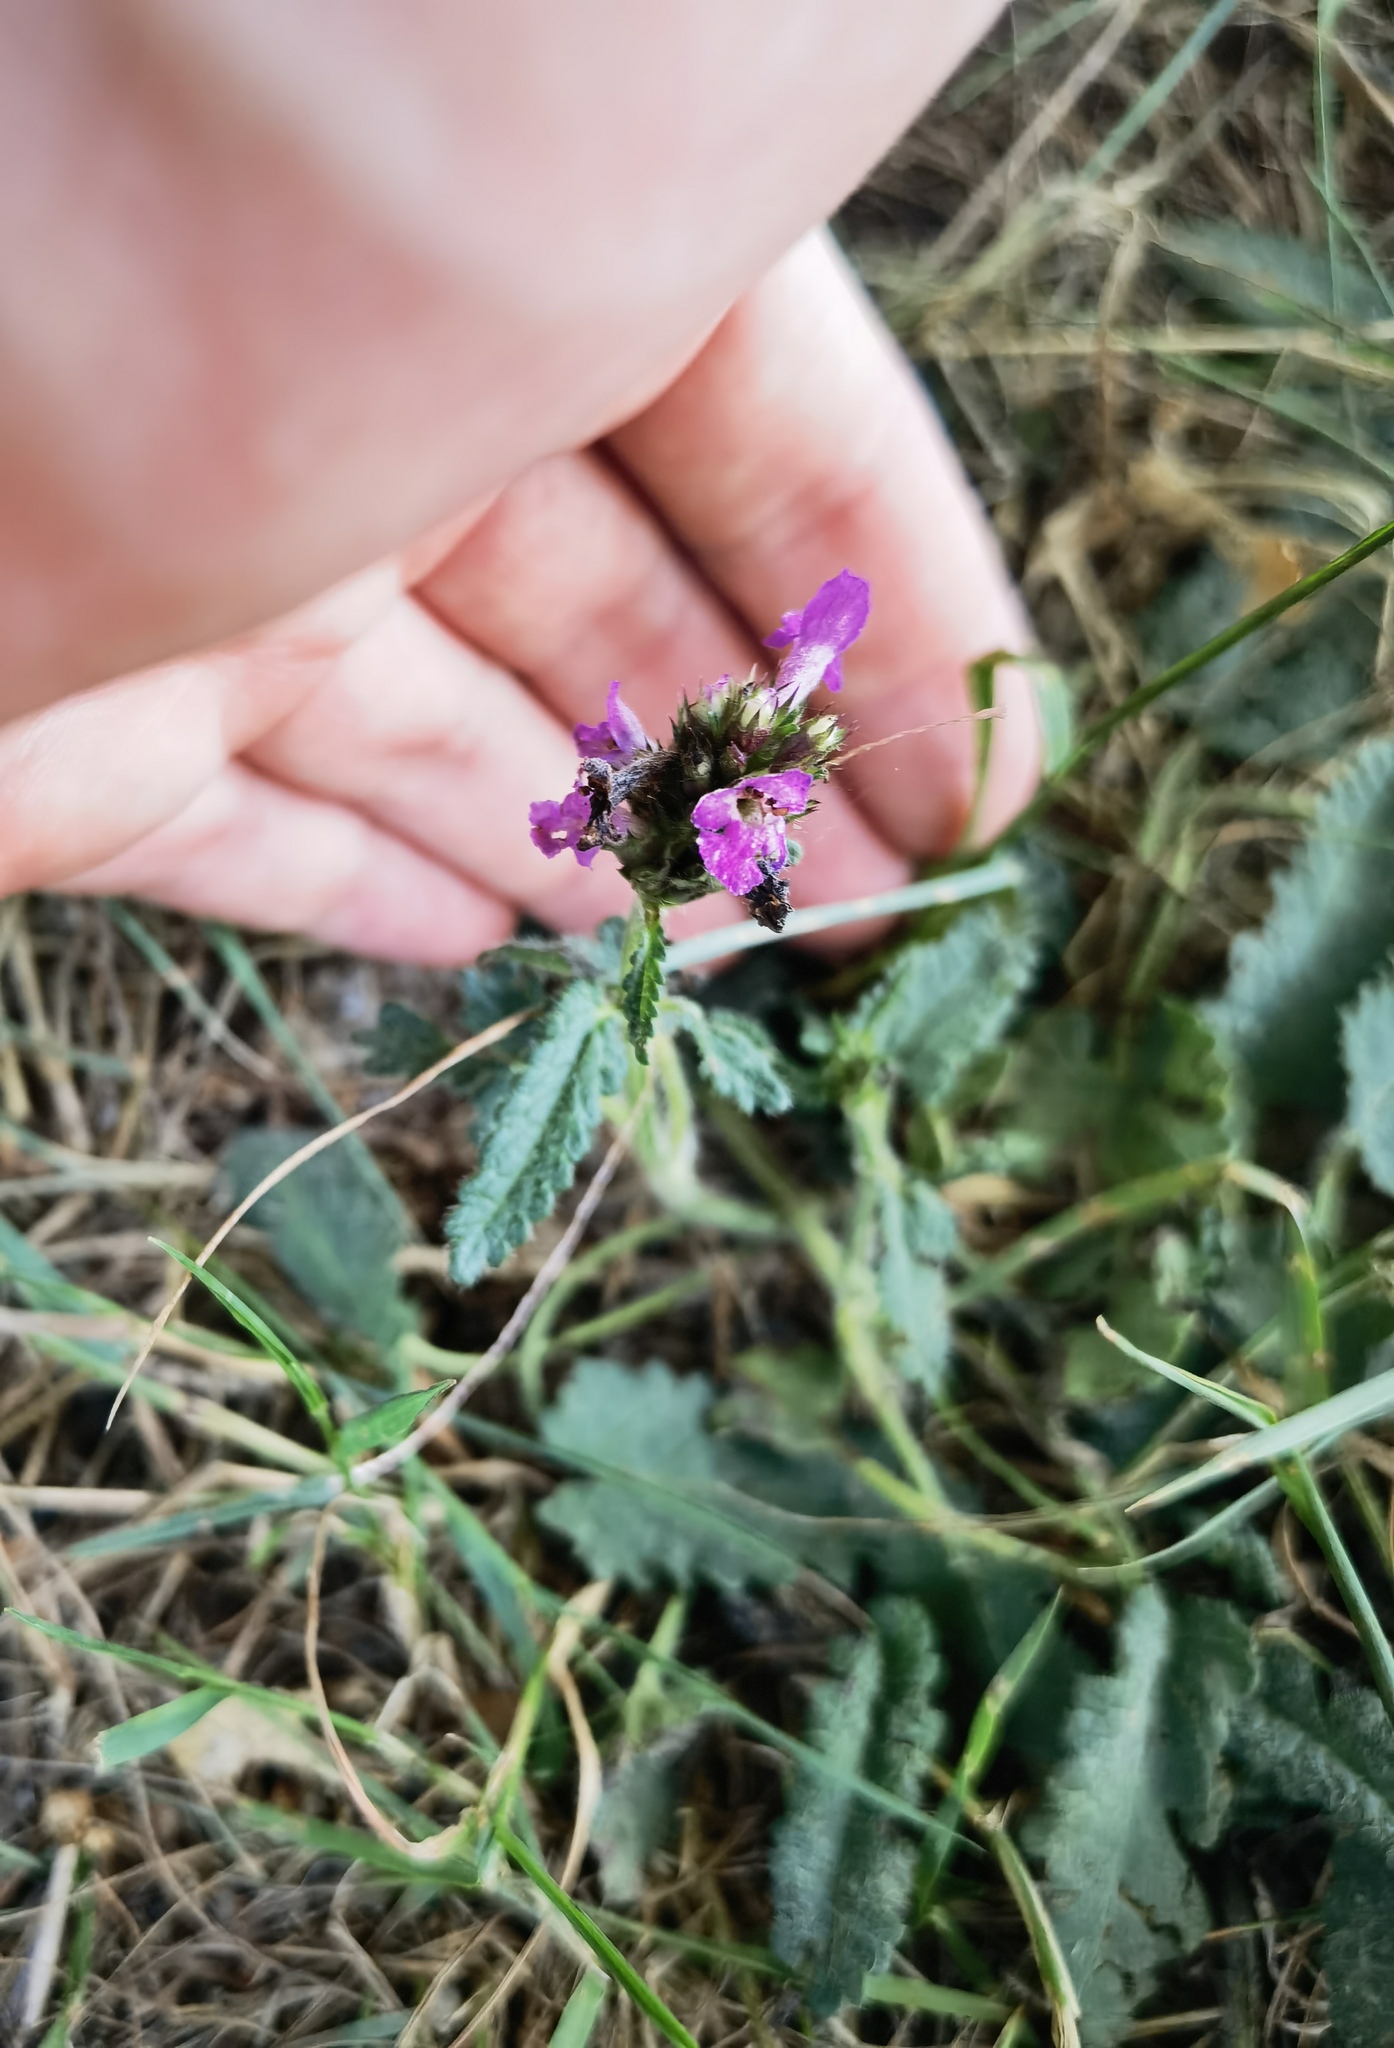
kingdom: Plantae
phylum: Tracheophyta
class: Magnoliopsida
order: Lamiales
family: Lamiaceae
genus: Betonica
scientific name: Betonica officinalis
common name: Bishop's-wort
